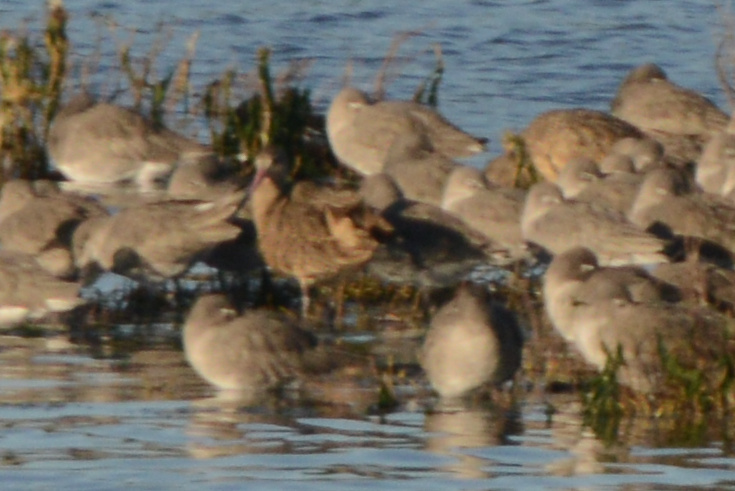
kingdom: Animalia
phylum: Chordata
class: Aves
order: Charadriiformes
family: Scolopacidae
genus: Limosa
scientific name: Limosa fedoa
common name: Marbled godwit
